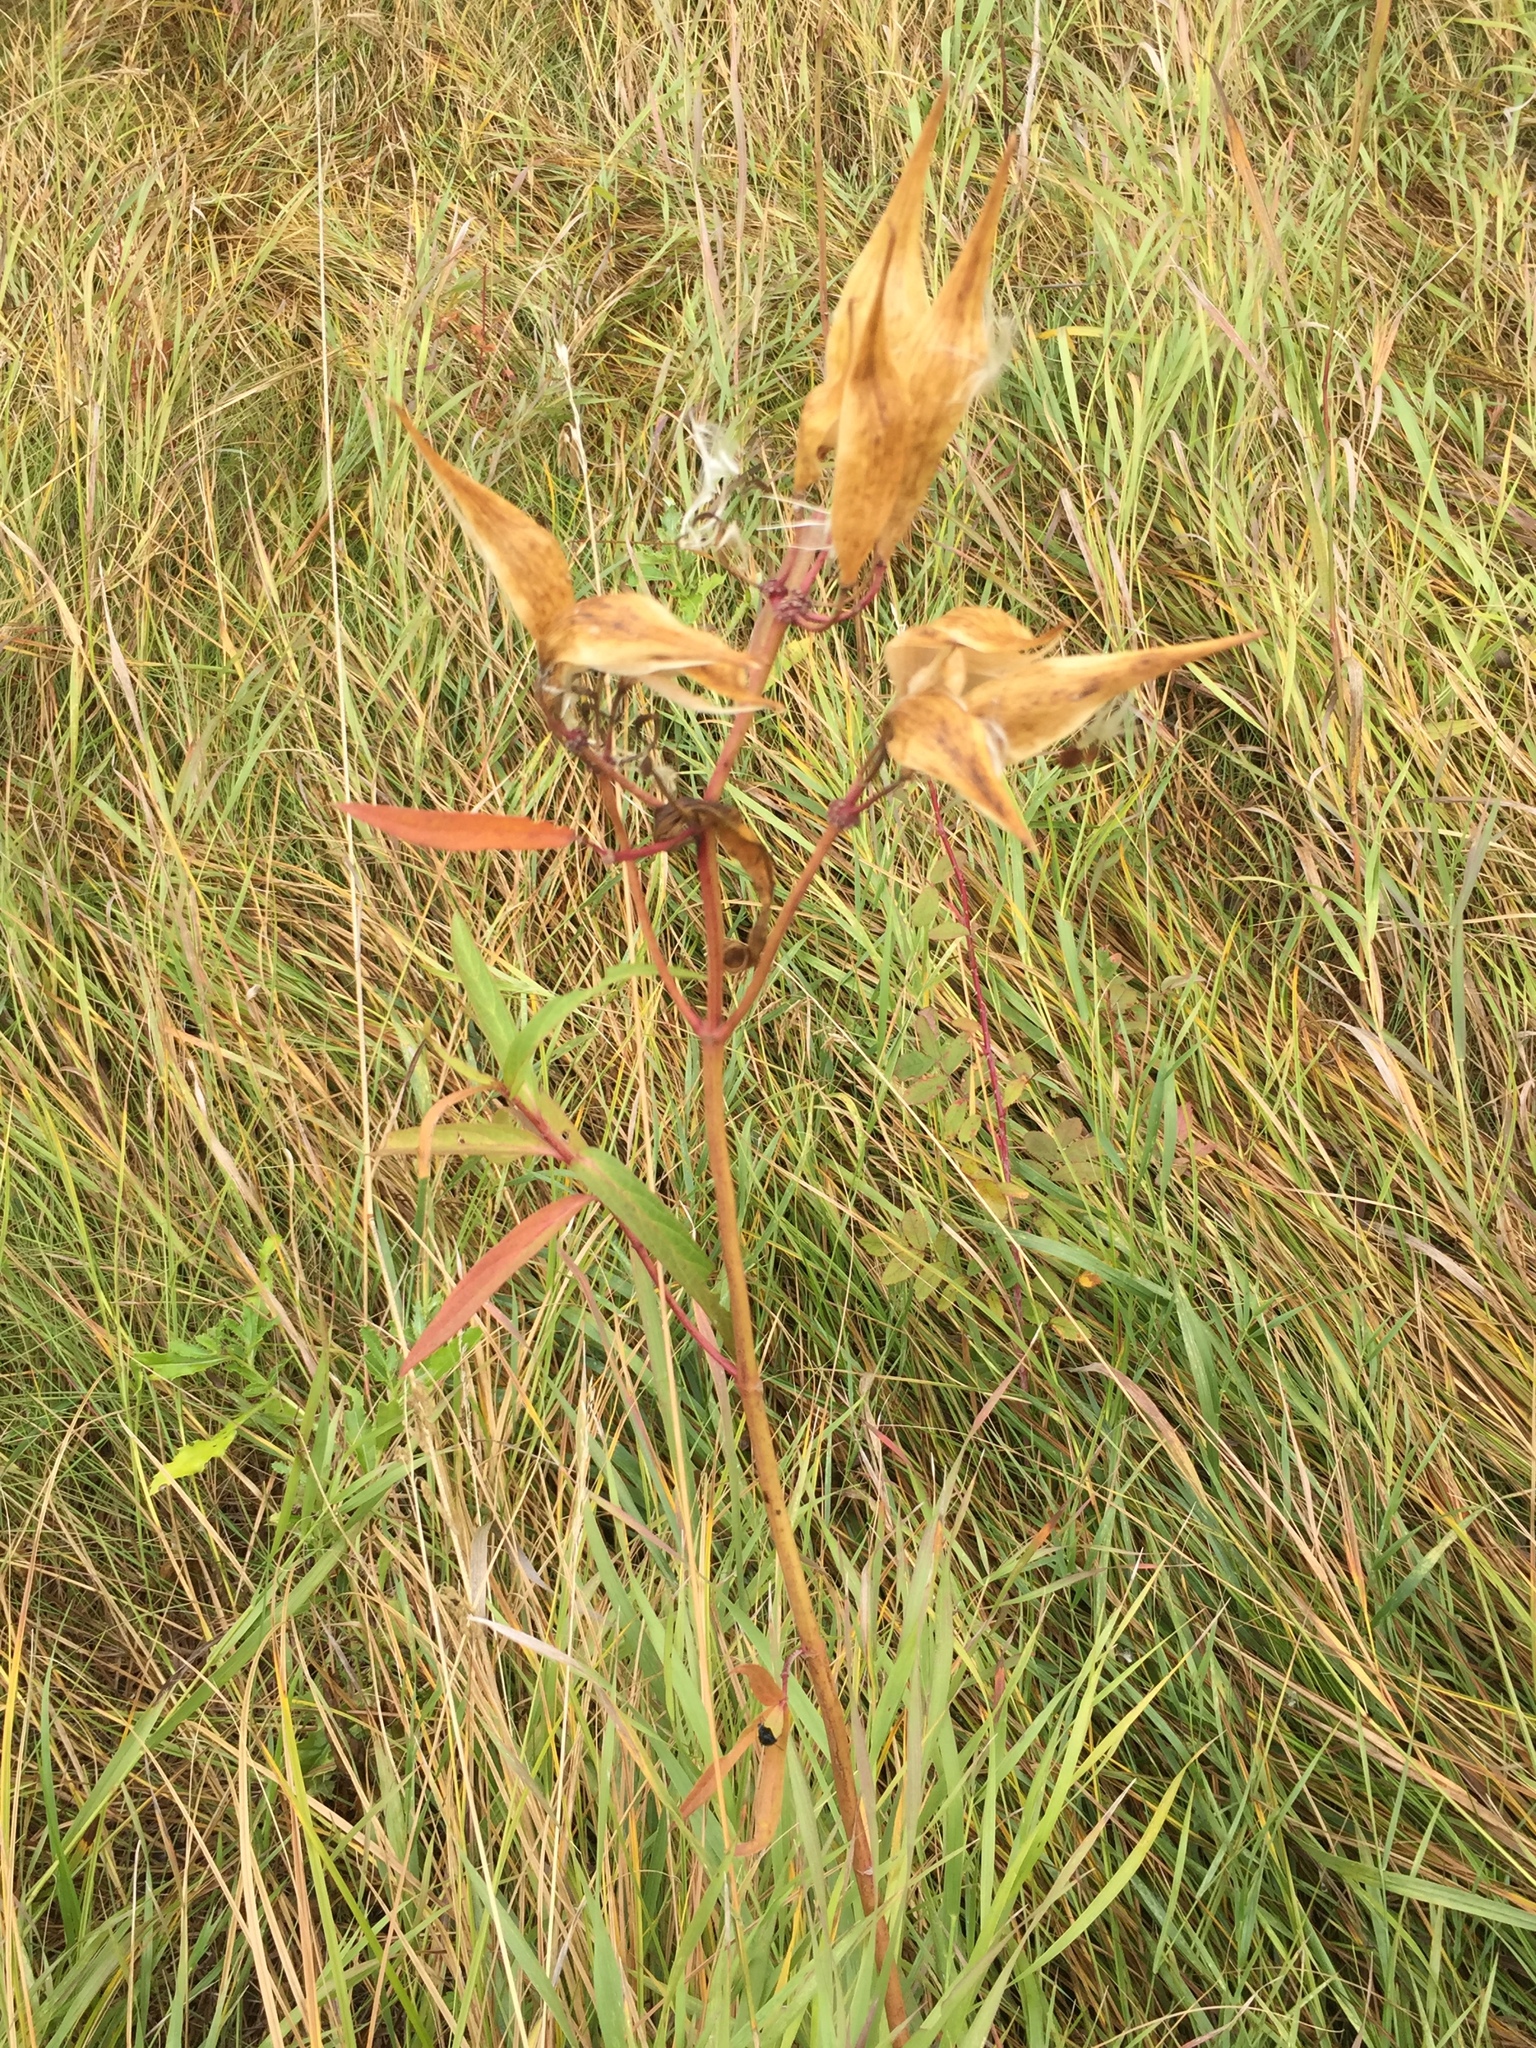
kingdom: Plantae
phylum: Tracheophyta
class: Magnoliopsida
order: Gentianales
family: Apocynaceae
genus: Asclepias
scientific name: Asclepias incarnata
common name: Swamp milkweed
